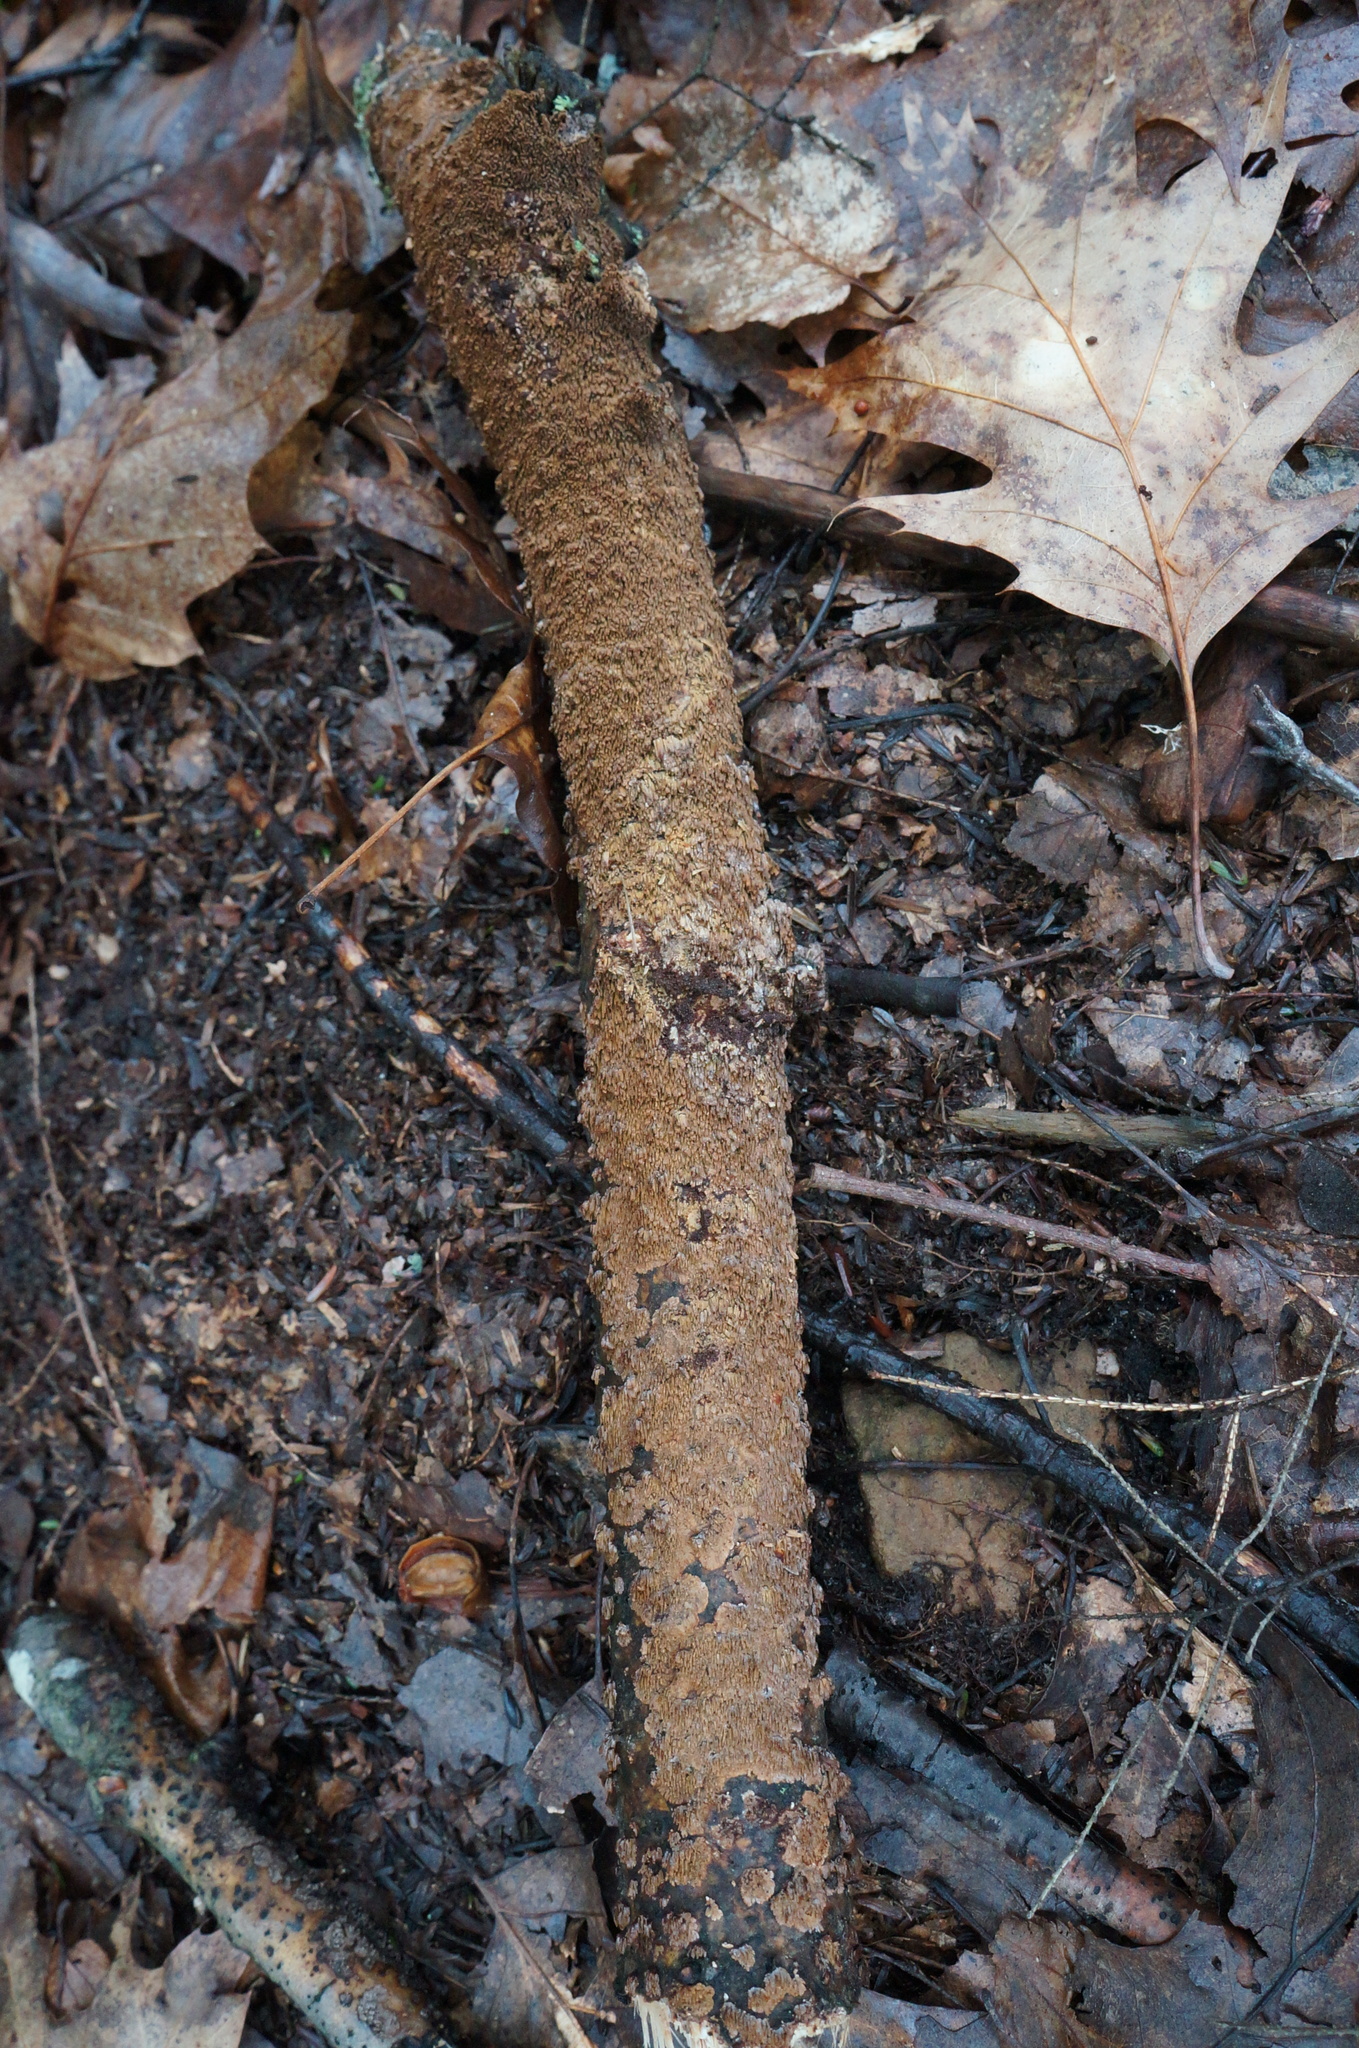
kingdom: Fungi
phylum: Basidiomycota
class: Agaricomycetes
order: Hymenochaetales
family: Hymenochaetaceae
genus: Hydnoporia
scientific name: Hydnoporia olivacea
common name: Brown-toothed crust fungus
